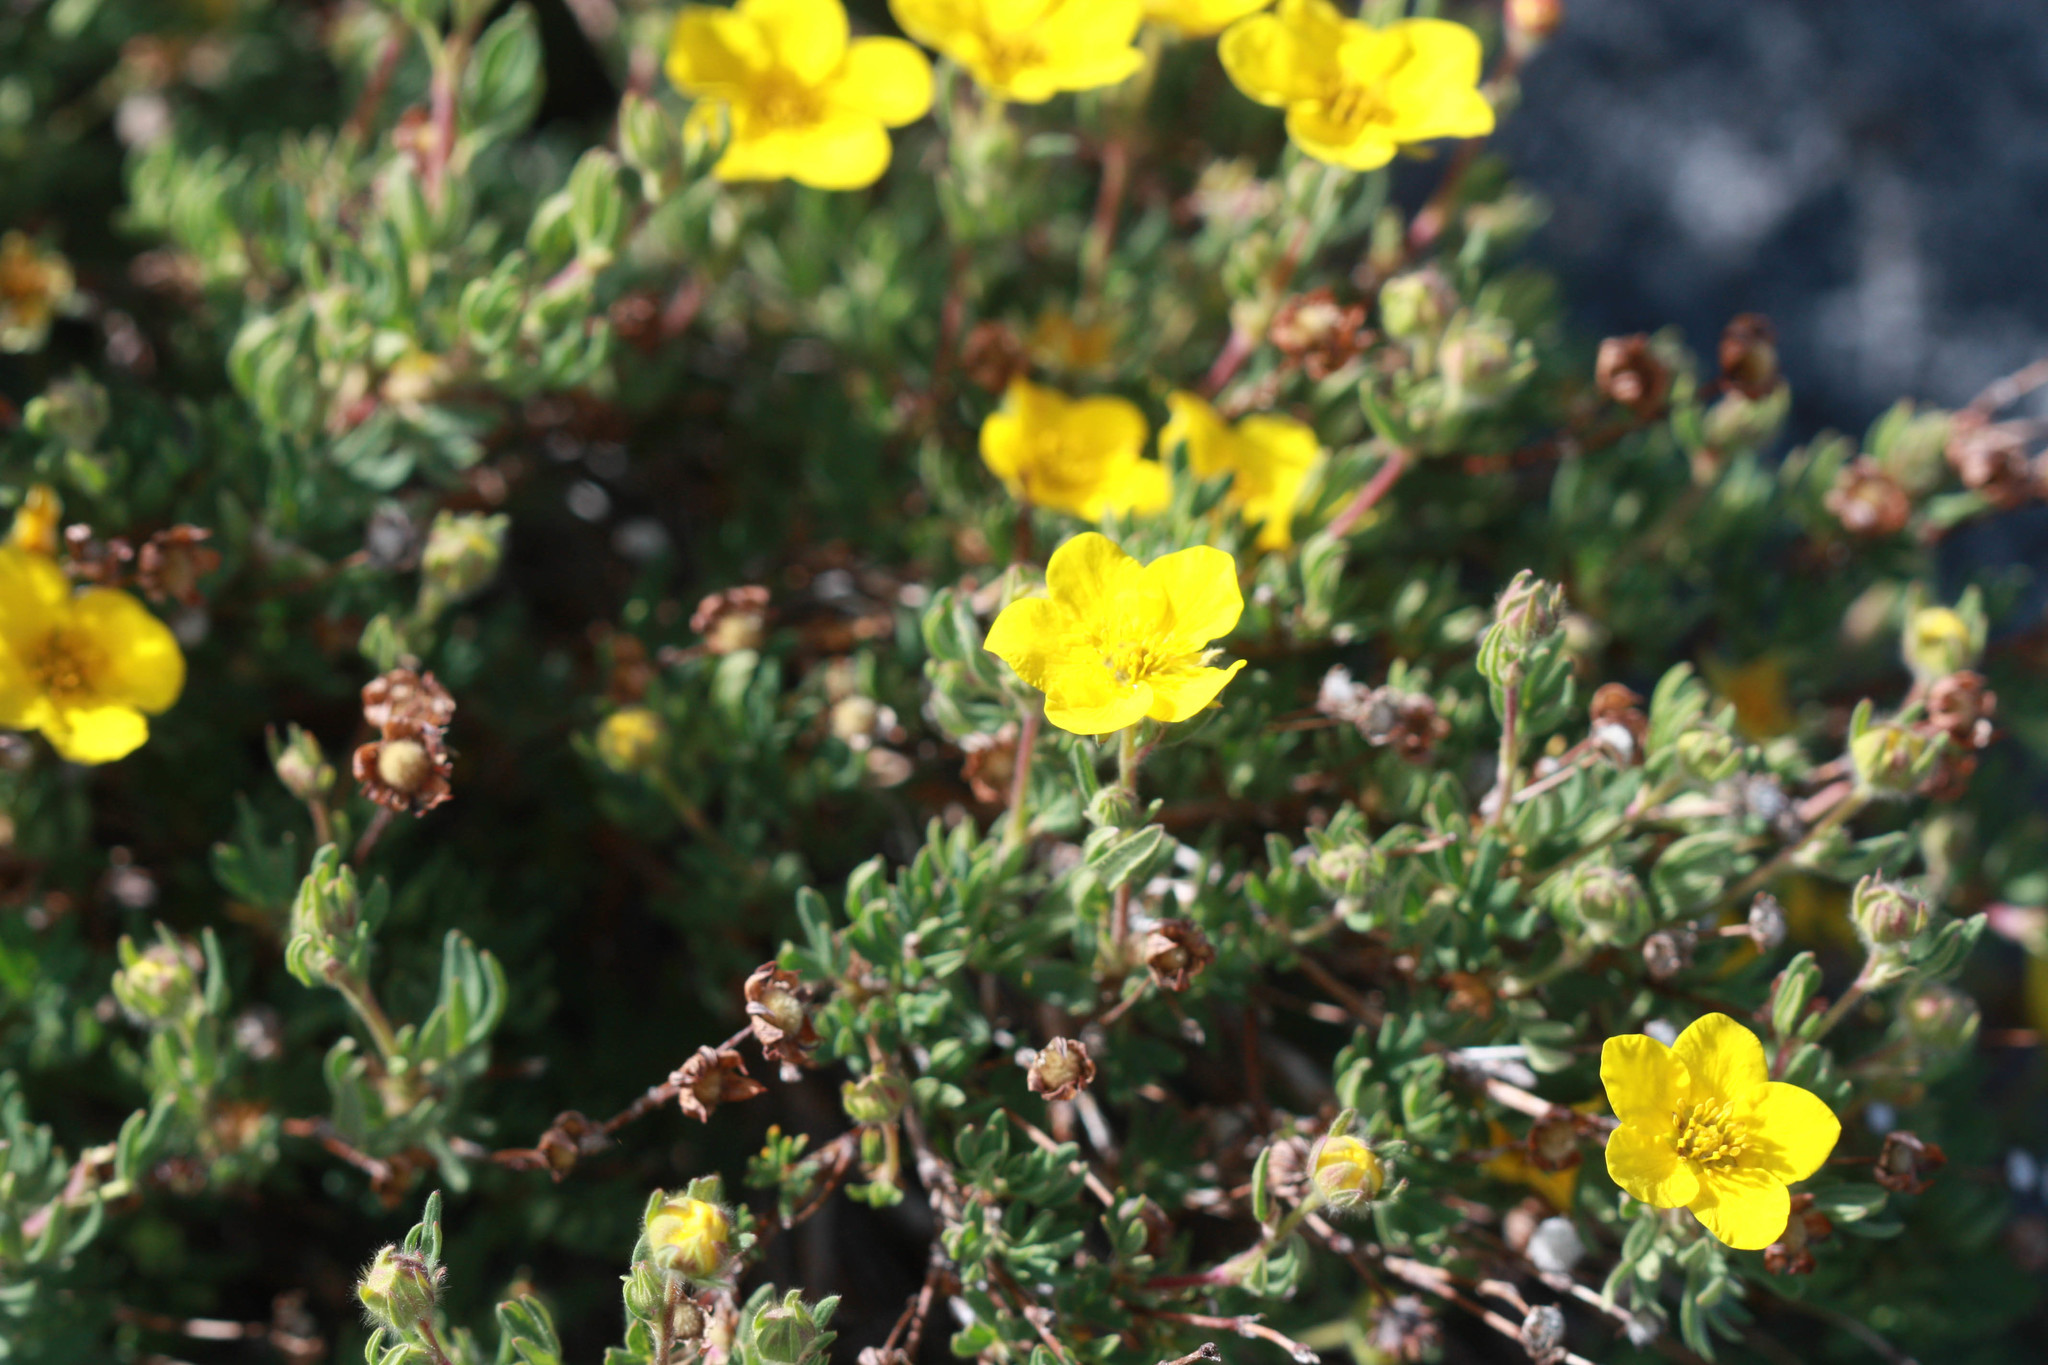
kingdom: Plantae
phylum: Tracheophyta
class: Magnoliopsida
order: Rosales
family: Rosaceae
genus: Dasiphora
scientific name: Dasiphora fruticosa
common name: Shrubby cinquefoil
